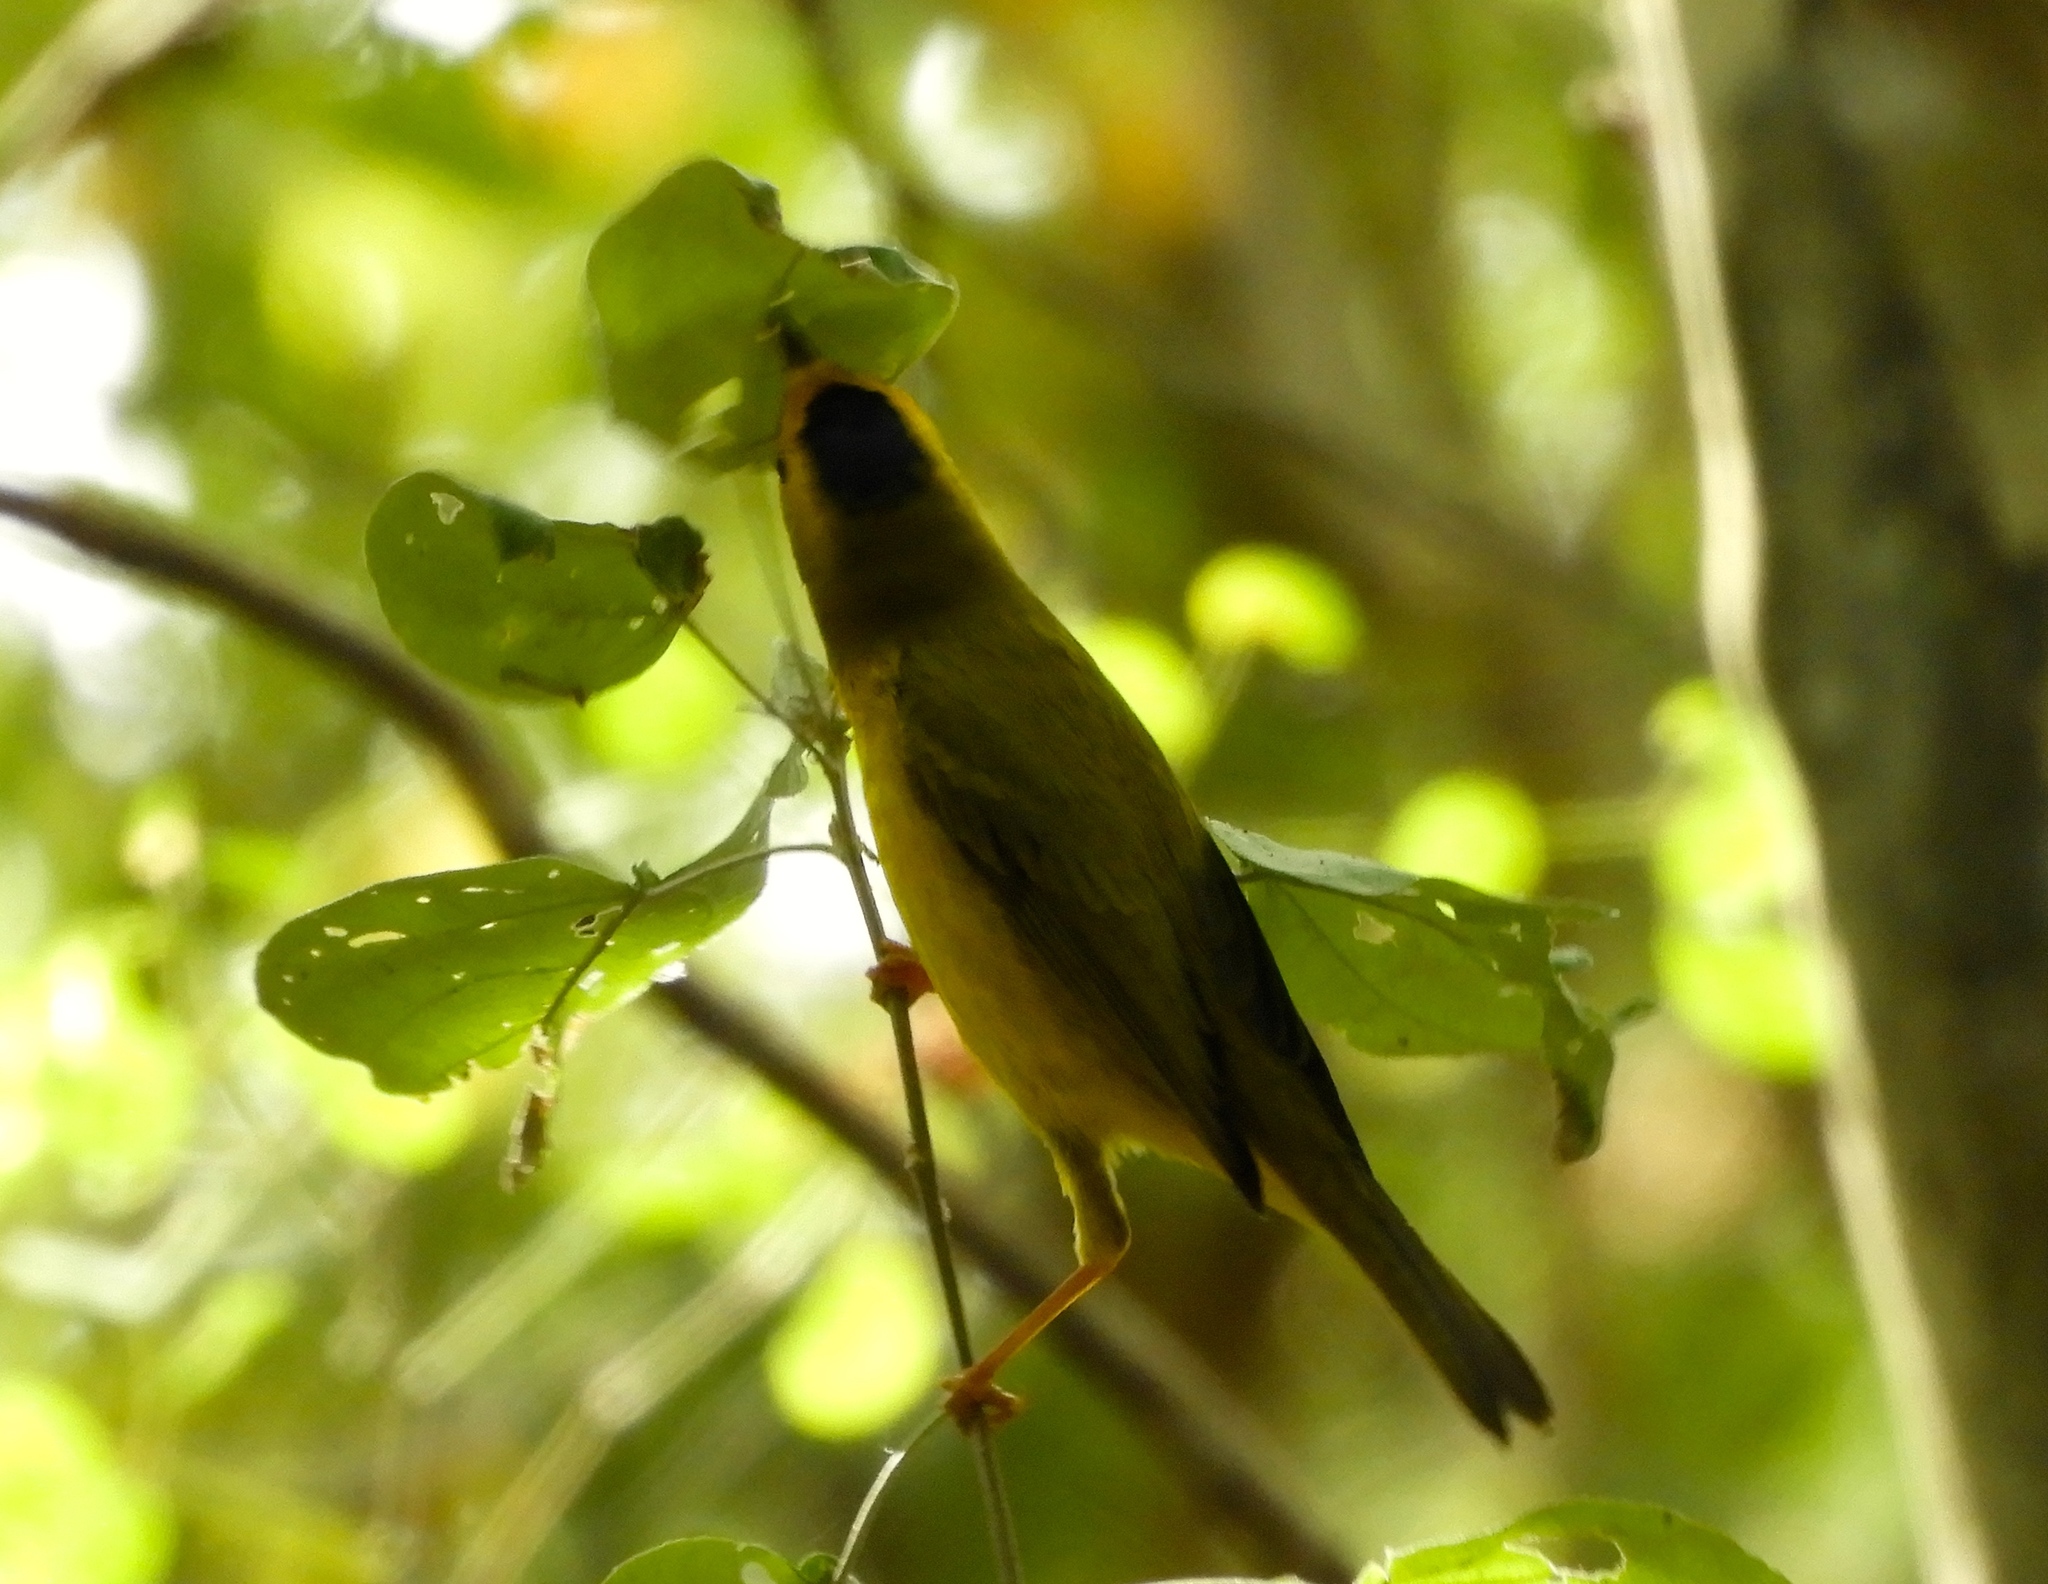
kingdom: Animalia
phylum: Chordata
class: Aves
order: Passeriformes
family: Parulidae
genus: Cardellina
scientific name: Cardellina pusilla
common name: Wilson's warbler
